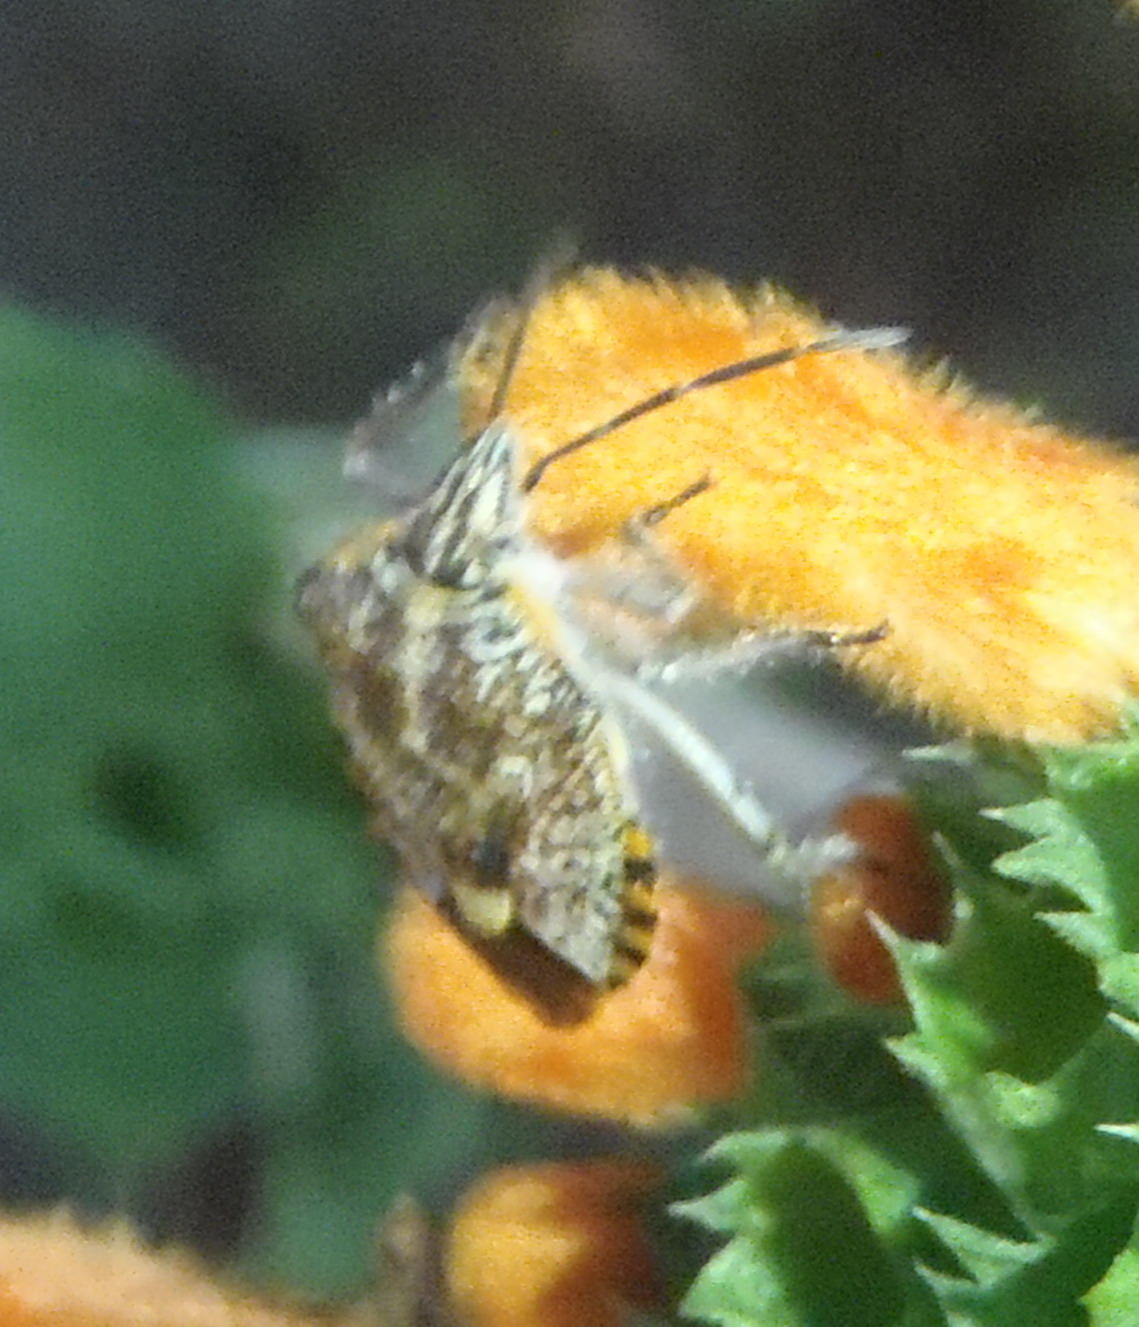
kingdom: Animalia
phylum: Arthropoda
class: Insecta
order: Hemiptera
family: Pentatomidae
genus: Agonoscelis
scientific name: Agonoscelis versicoloratus
